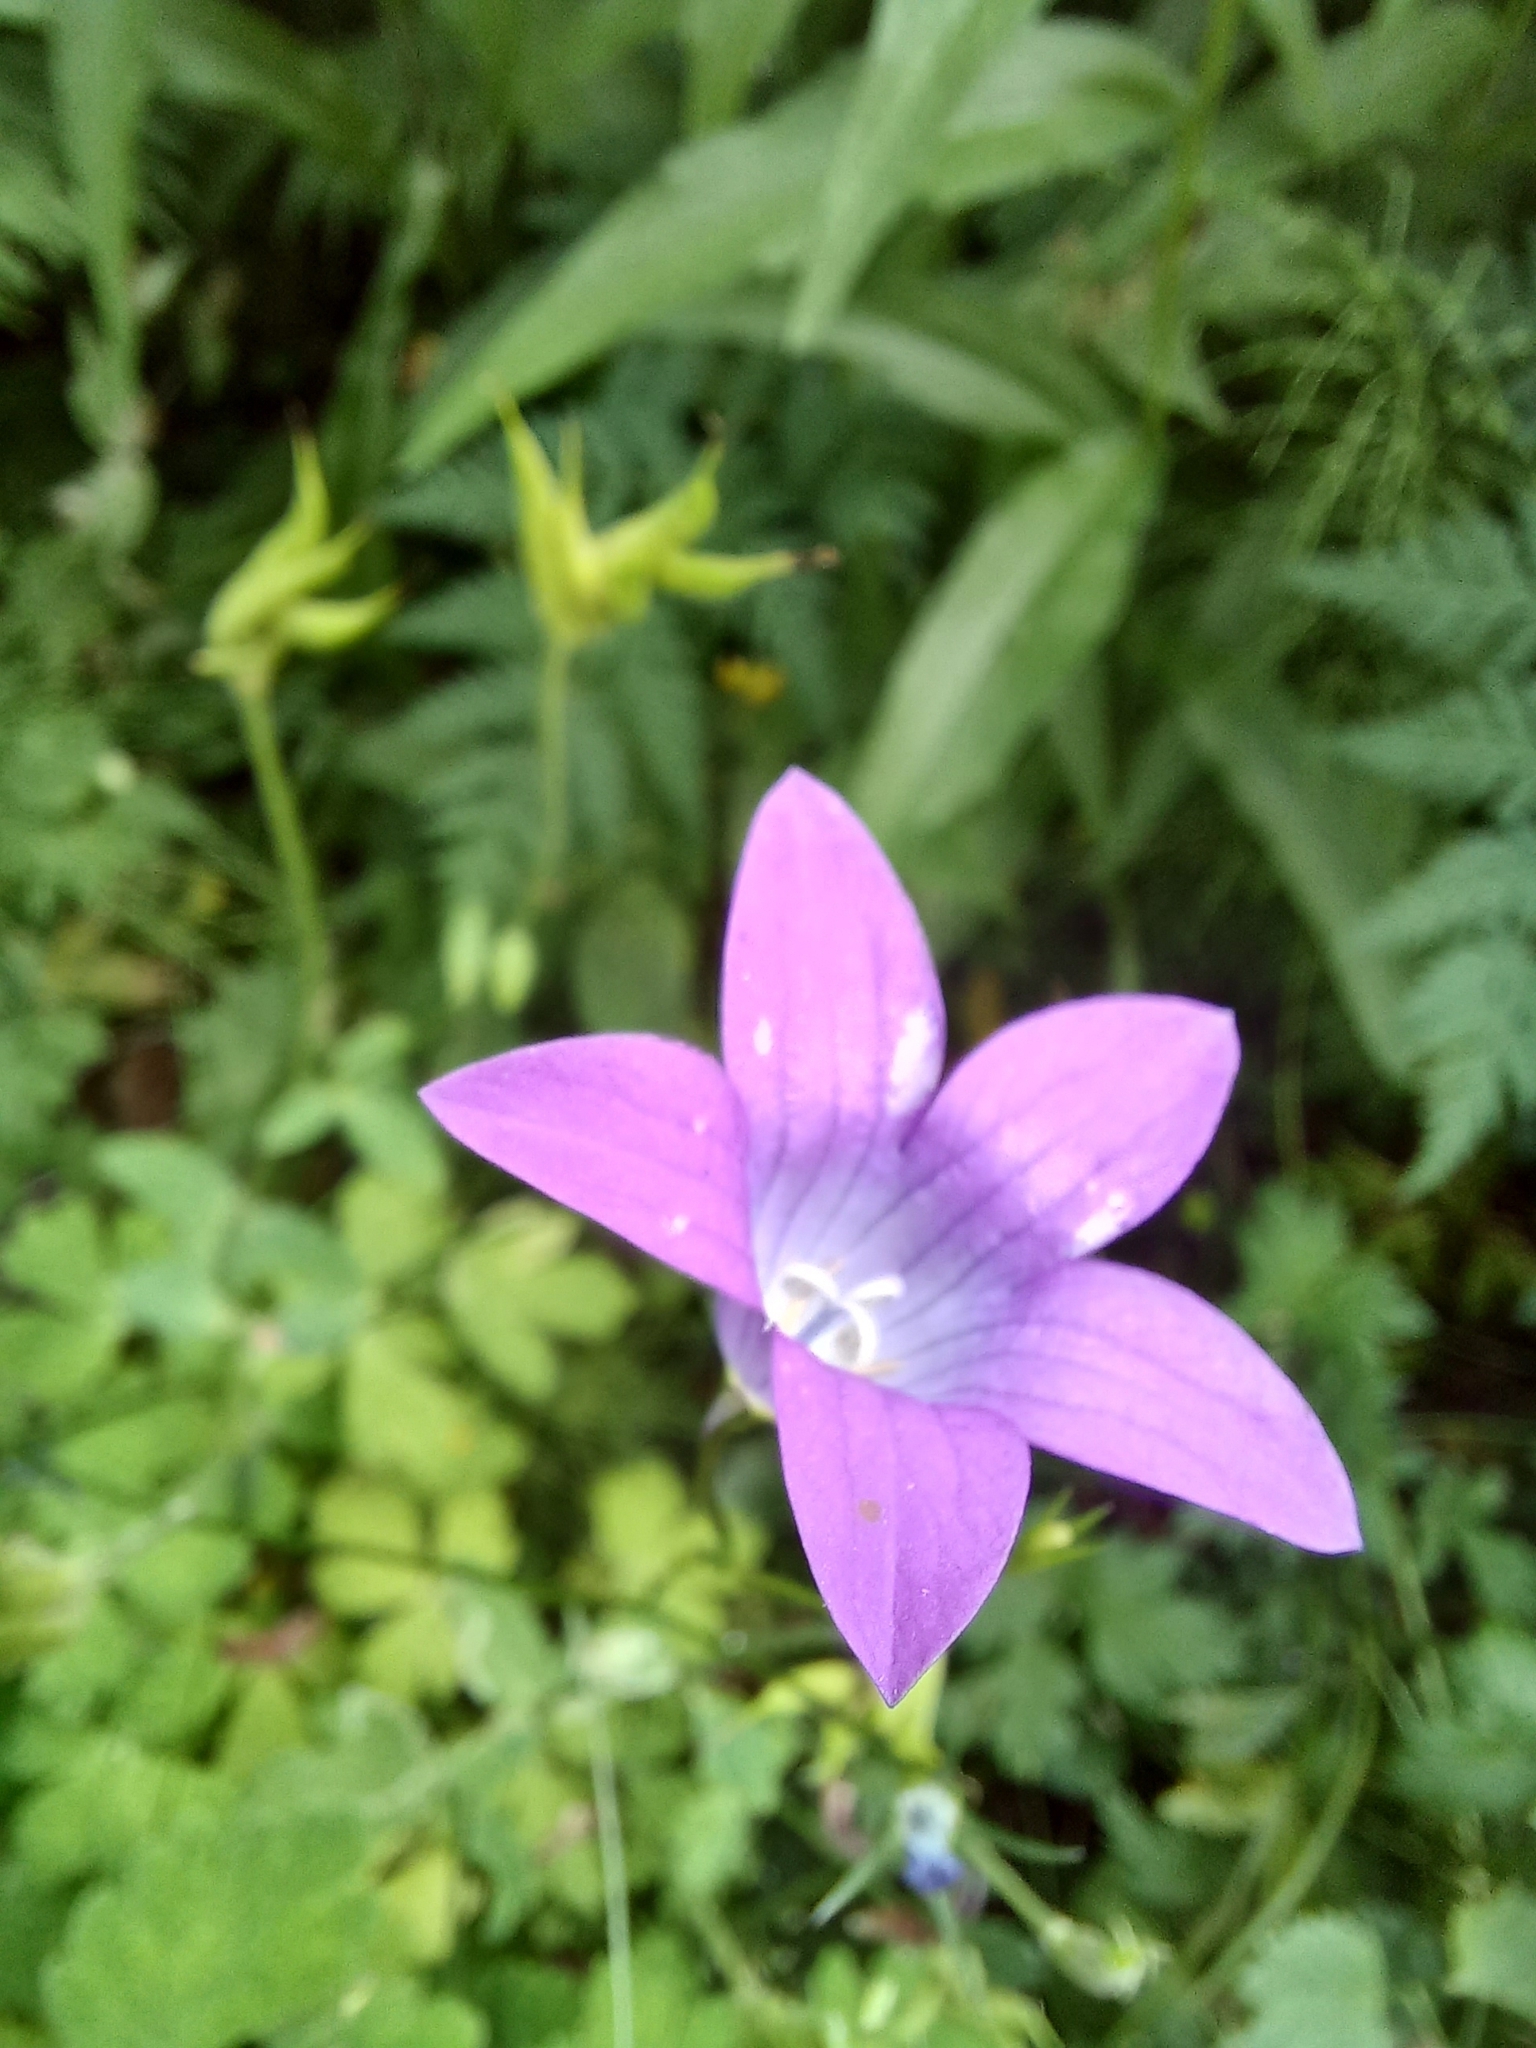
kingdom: Plantae
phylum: Tracheophyta
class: Magnoliopsida
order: Asterales
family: Campanulaceae
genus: Campanula
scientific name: Campanula patula
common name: Spreading bellflower
